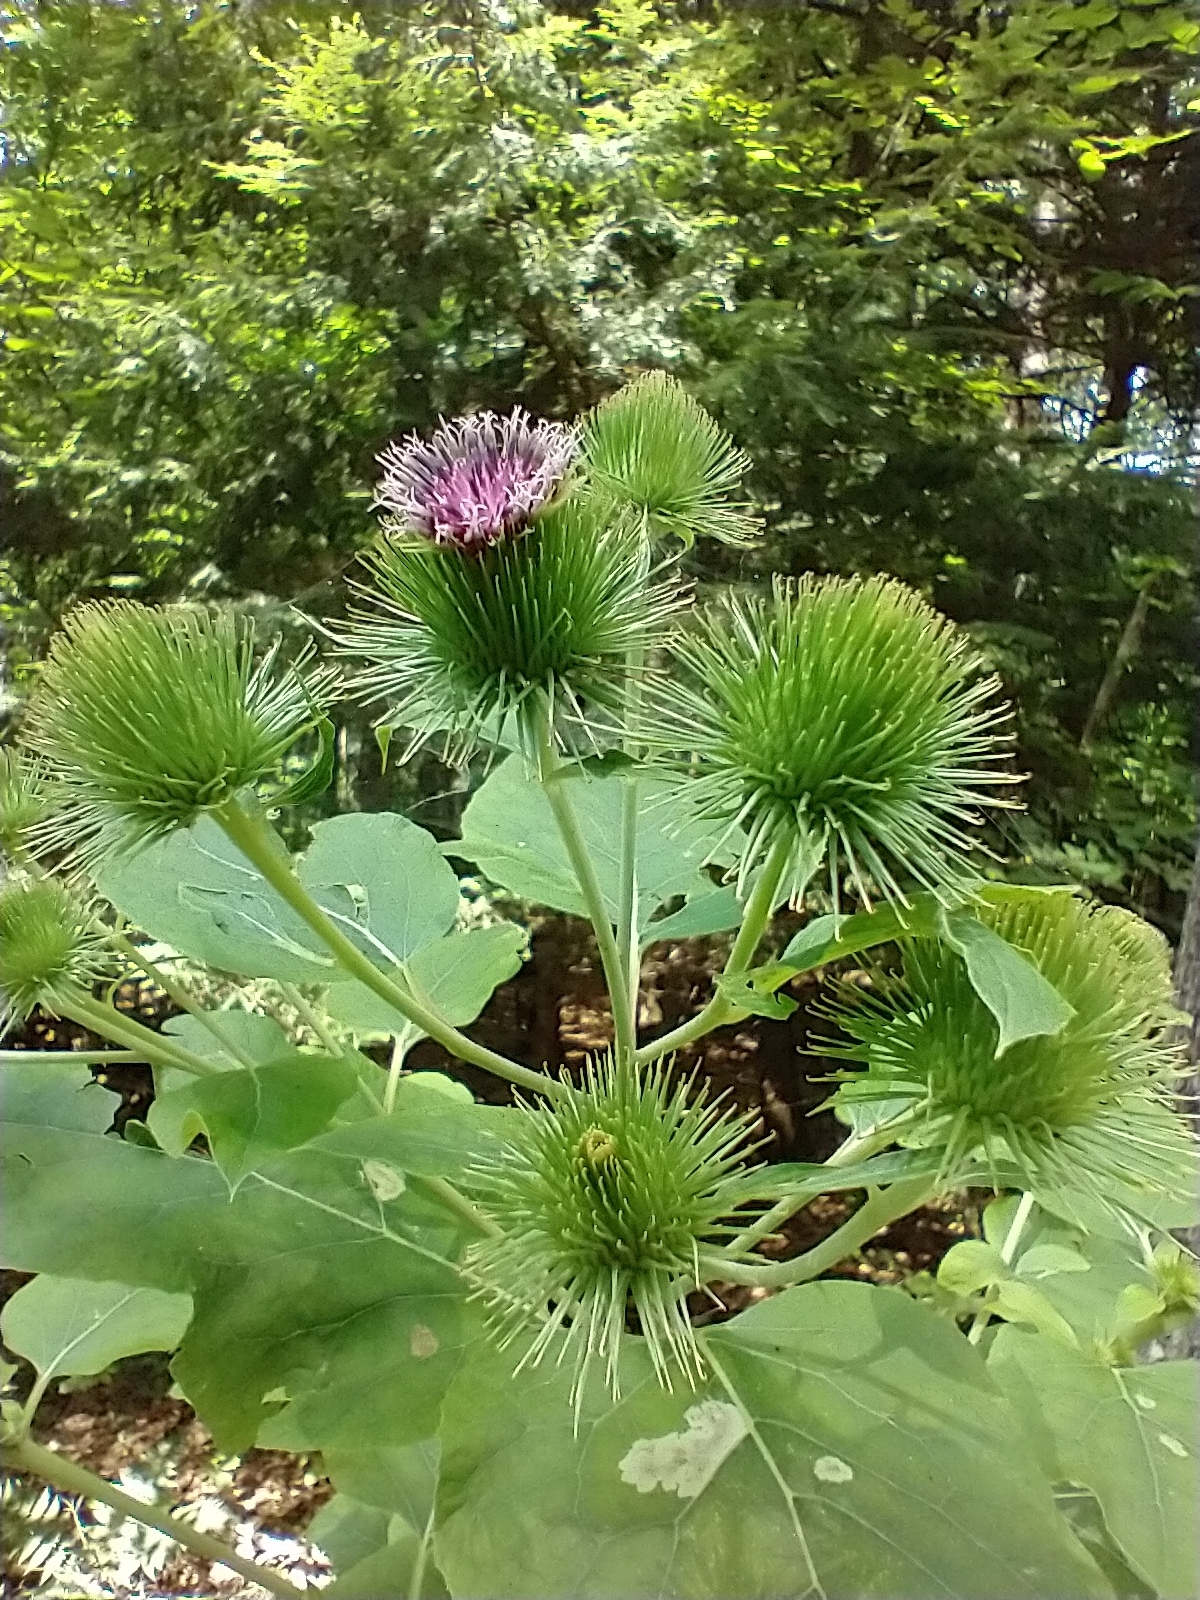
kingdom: Plantae
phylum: Tracheophyta
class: Magnoliopsida
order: Asterales
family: Asteraceae
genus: Arctium
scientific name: Arctium lappa
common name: Greater burdock
